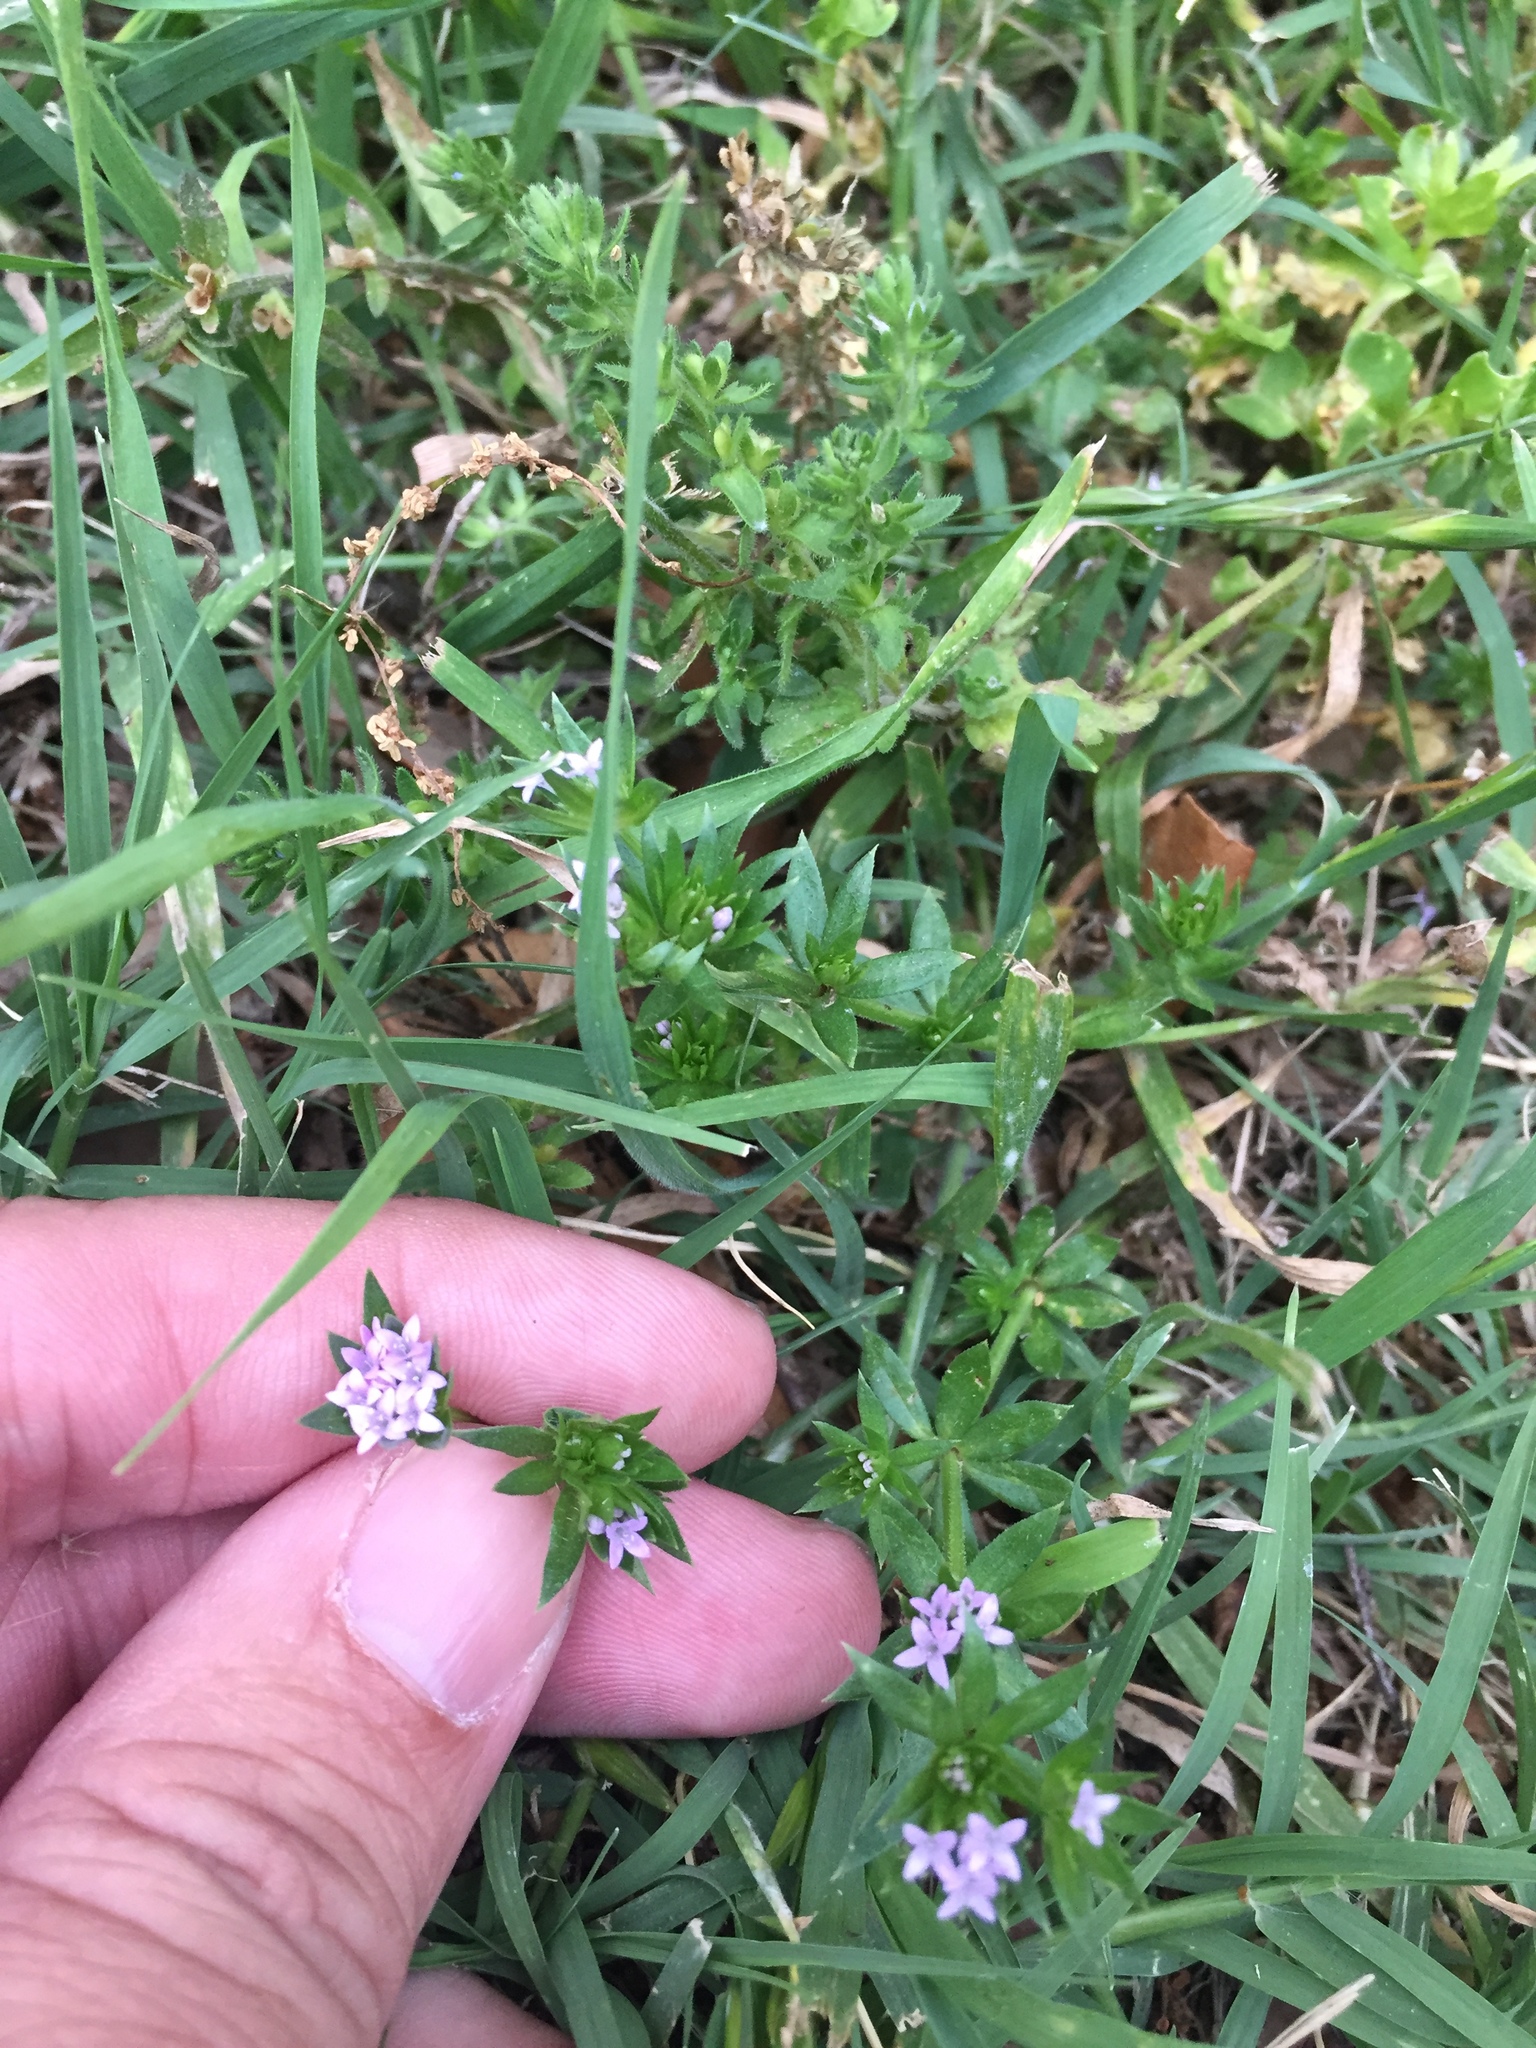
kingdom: Plantae
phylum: Tracheophyta
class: Magnoliopsida
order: Gentianales
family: Rubiaceae
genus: Sherardia
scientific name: Sherardia arvensis
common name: Field madder
